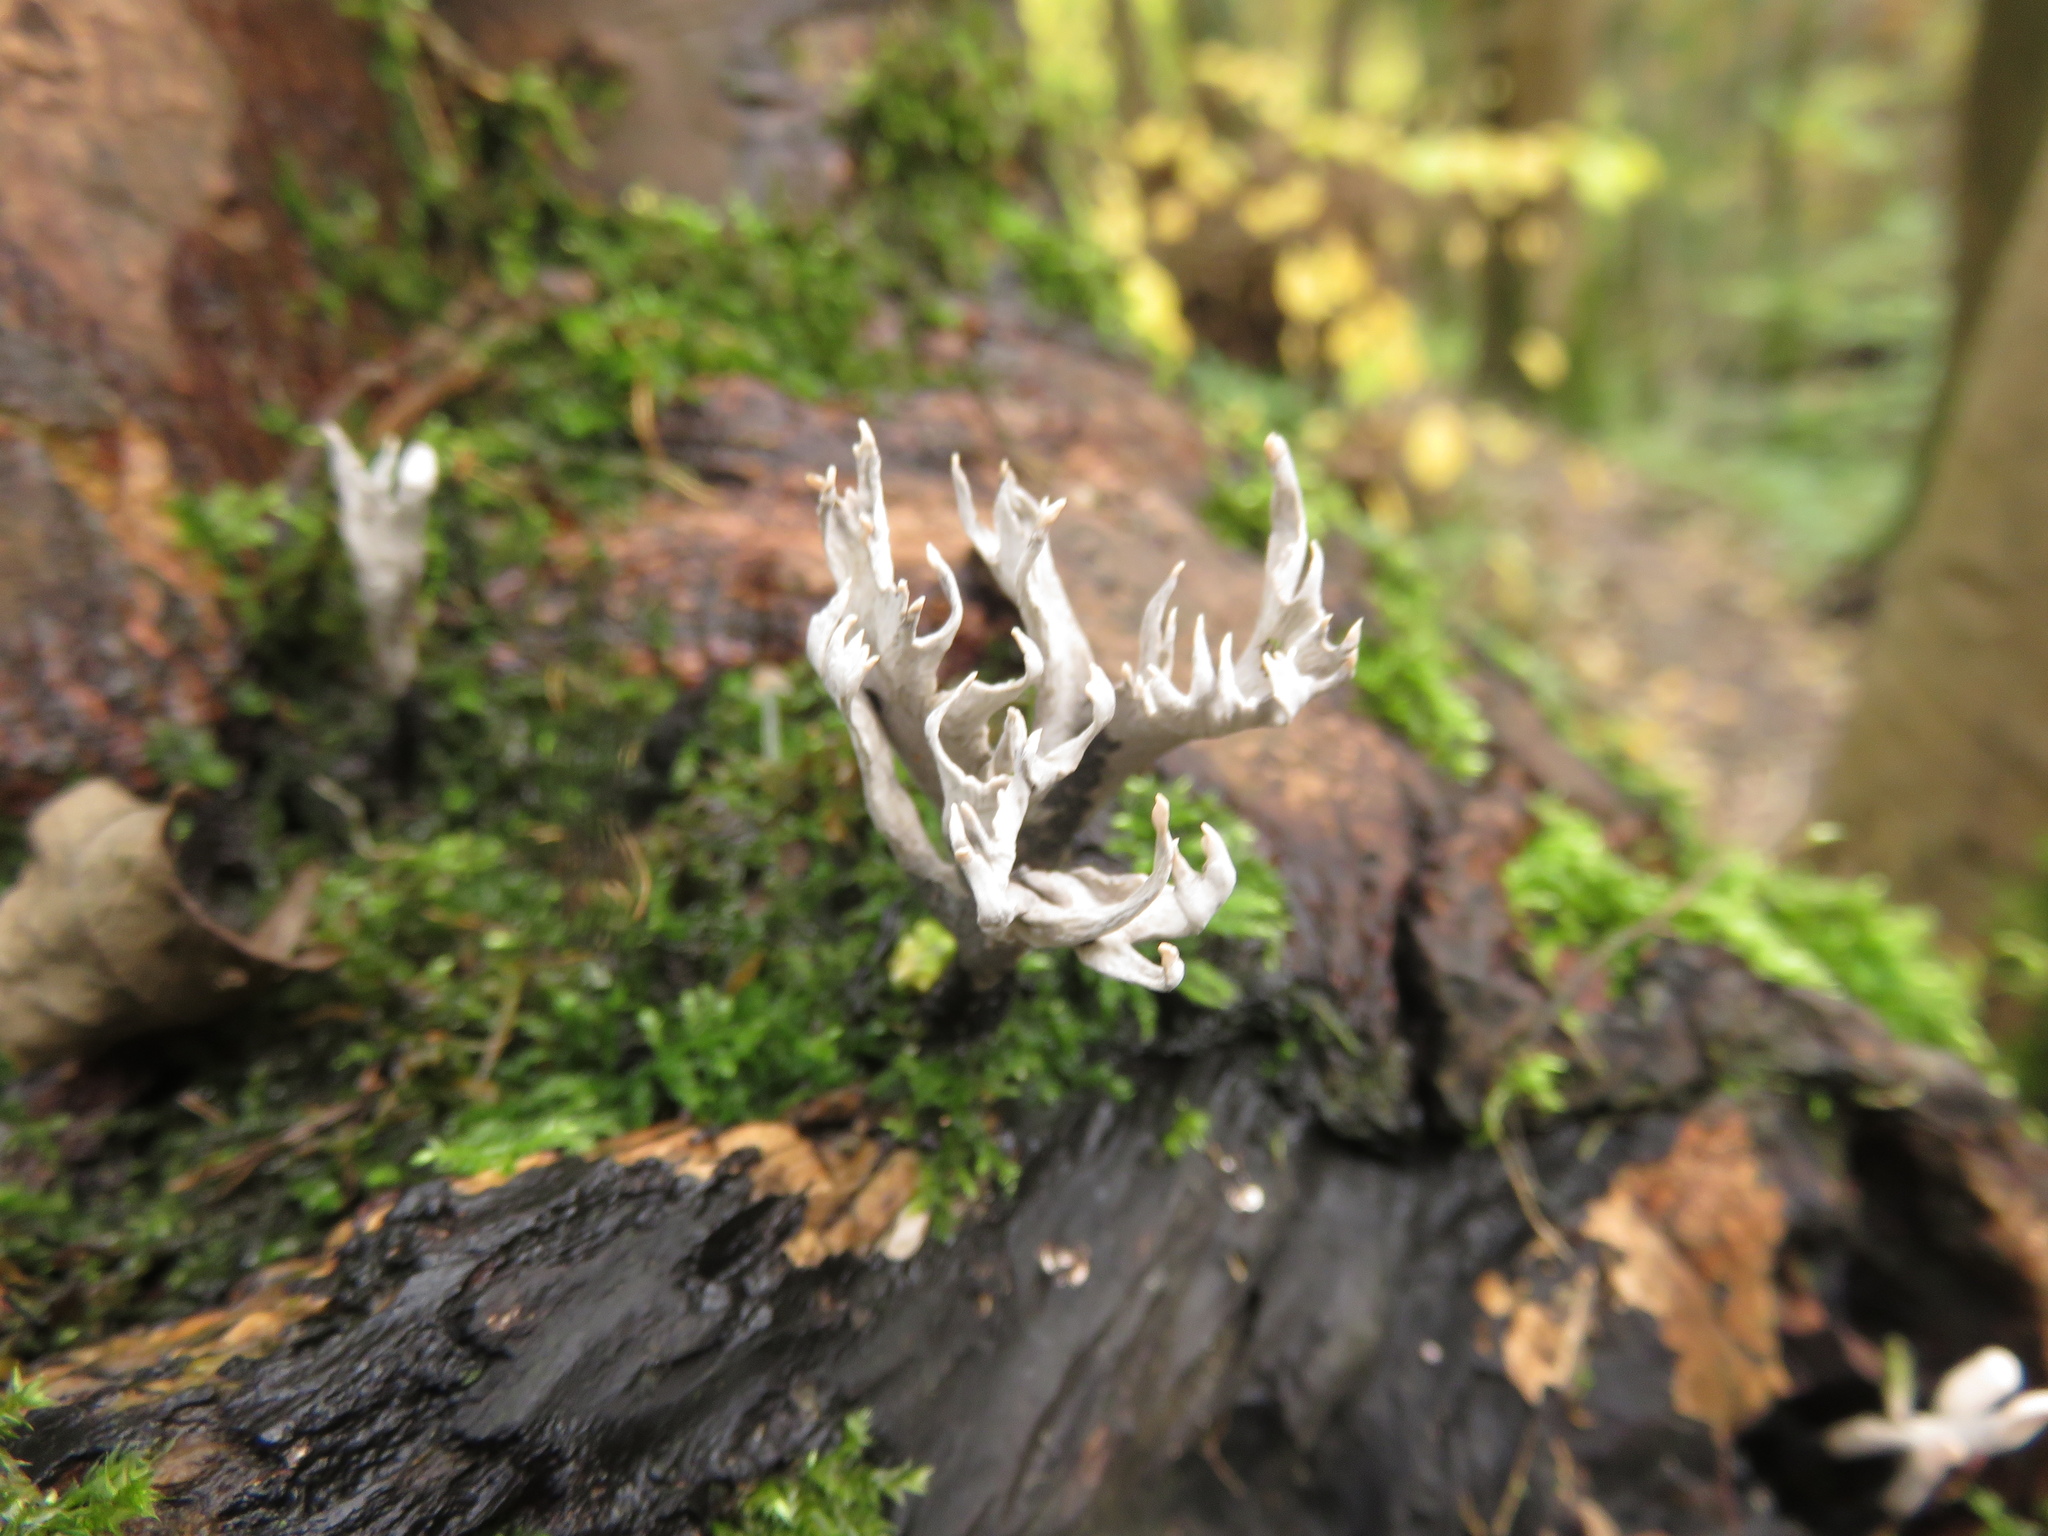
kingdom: Fungi
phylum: Ascomycota
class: Sordariomycetes
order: Xylariales
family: Xylariaceae
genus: Xylaria
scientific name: Xylaria hypoxylon
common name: Candle-snuff fungus
